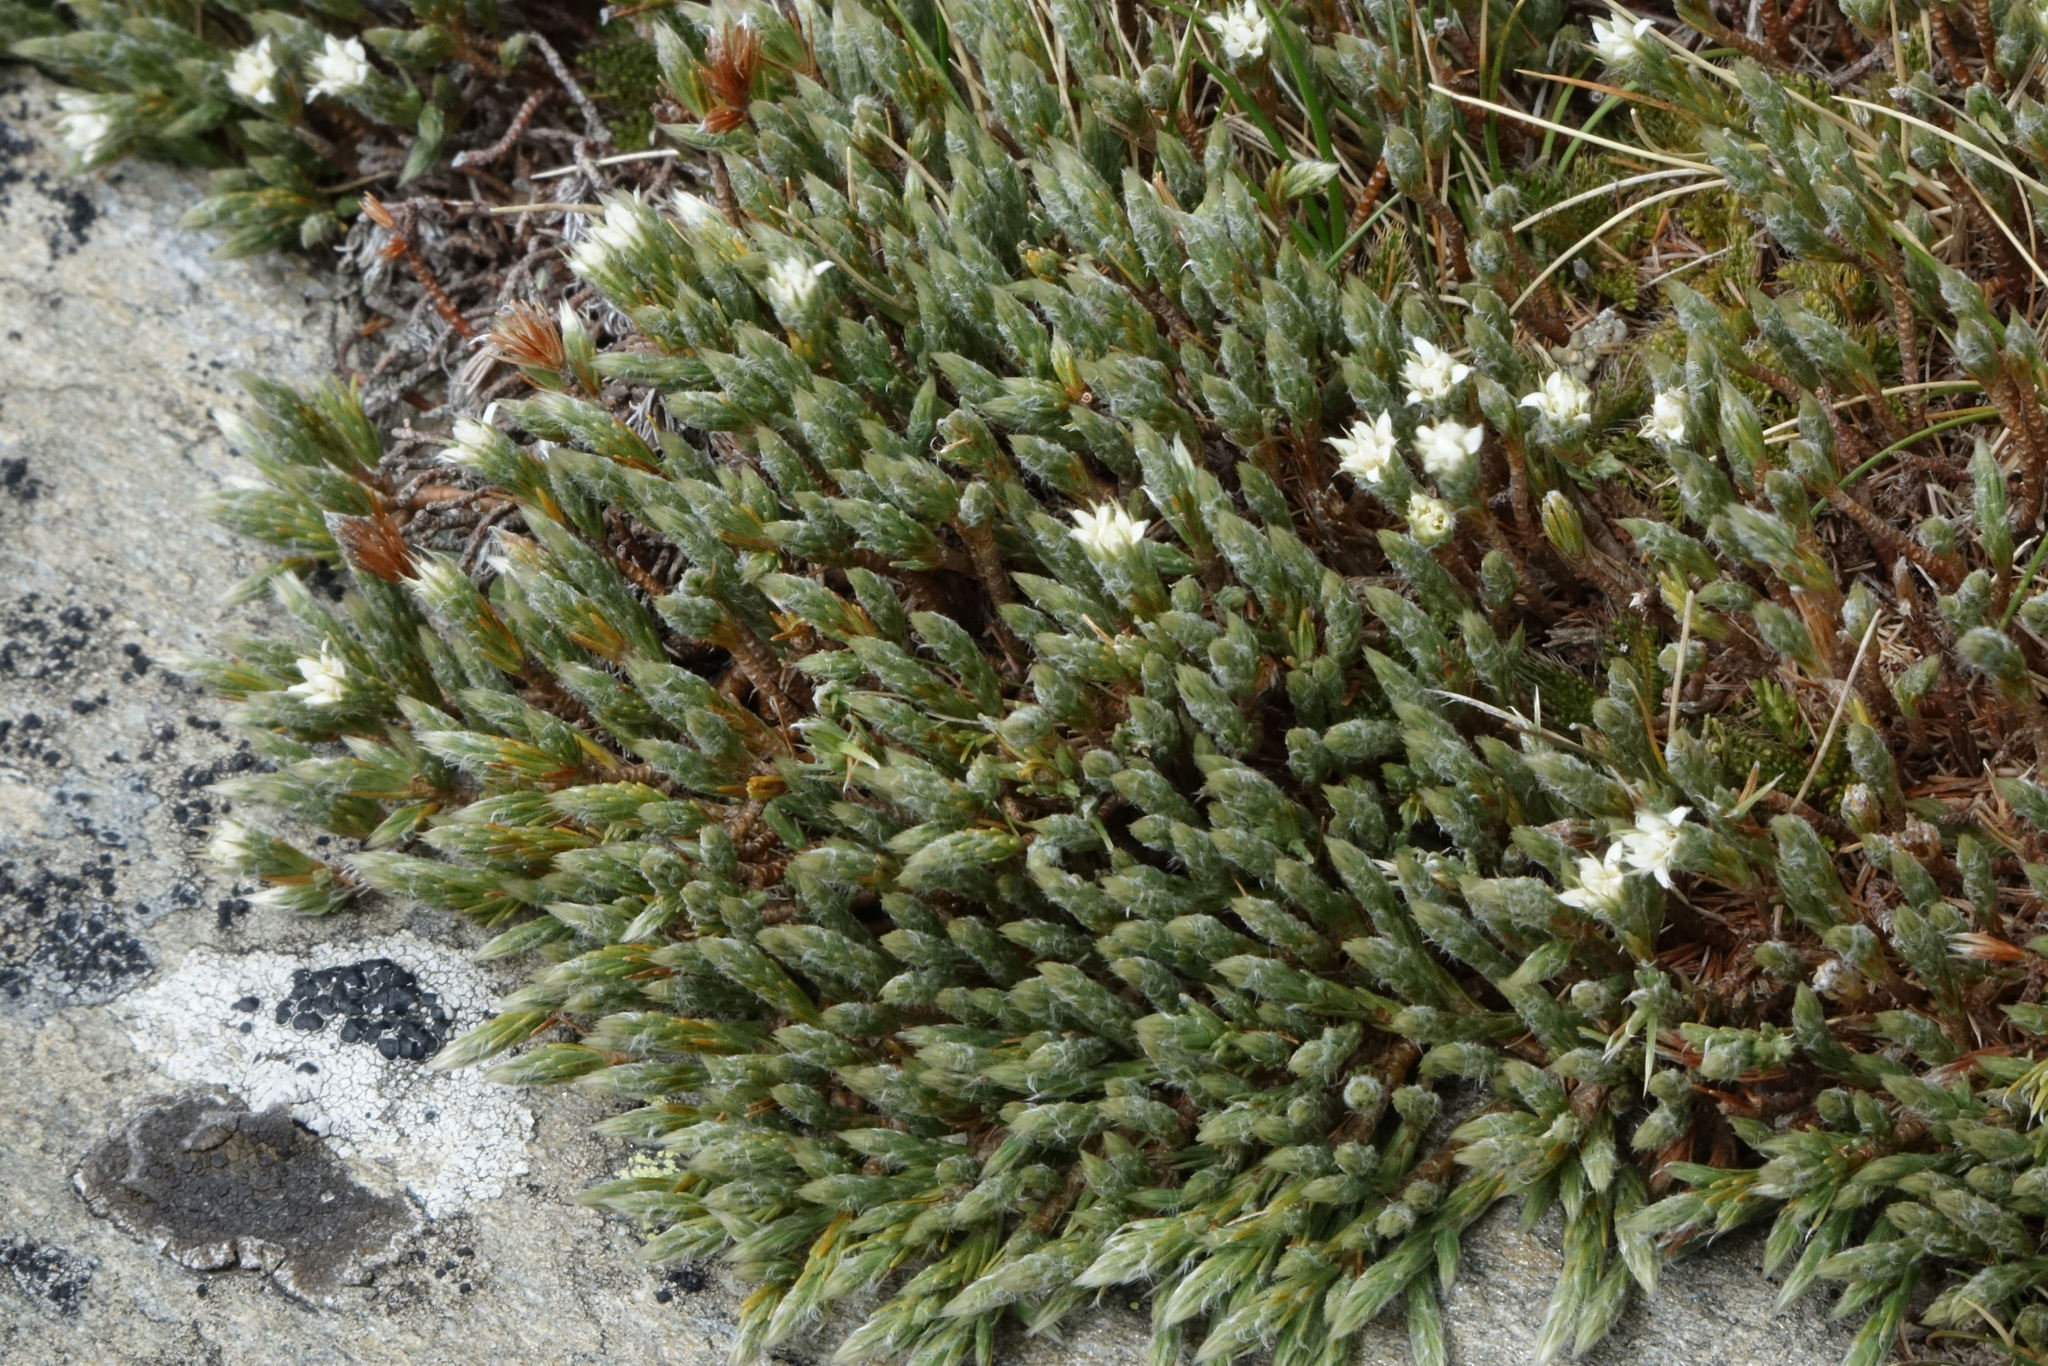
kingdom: Plantae
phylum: Tracheophyta
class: Magnoliopsida
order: Malvales
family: Thymelaeaceae
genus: Kelleria
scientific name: Kelleria villosa
